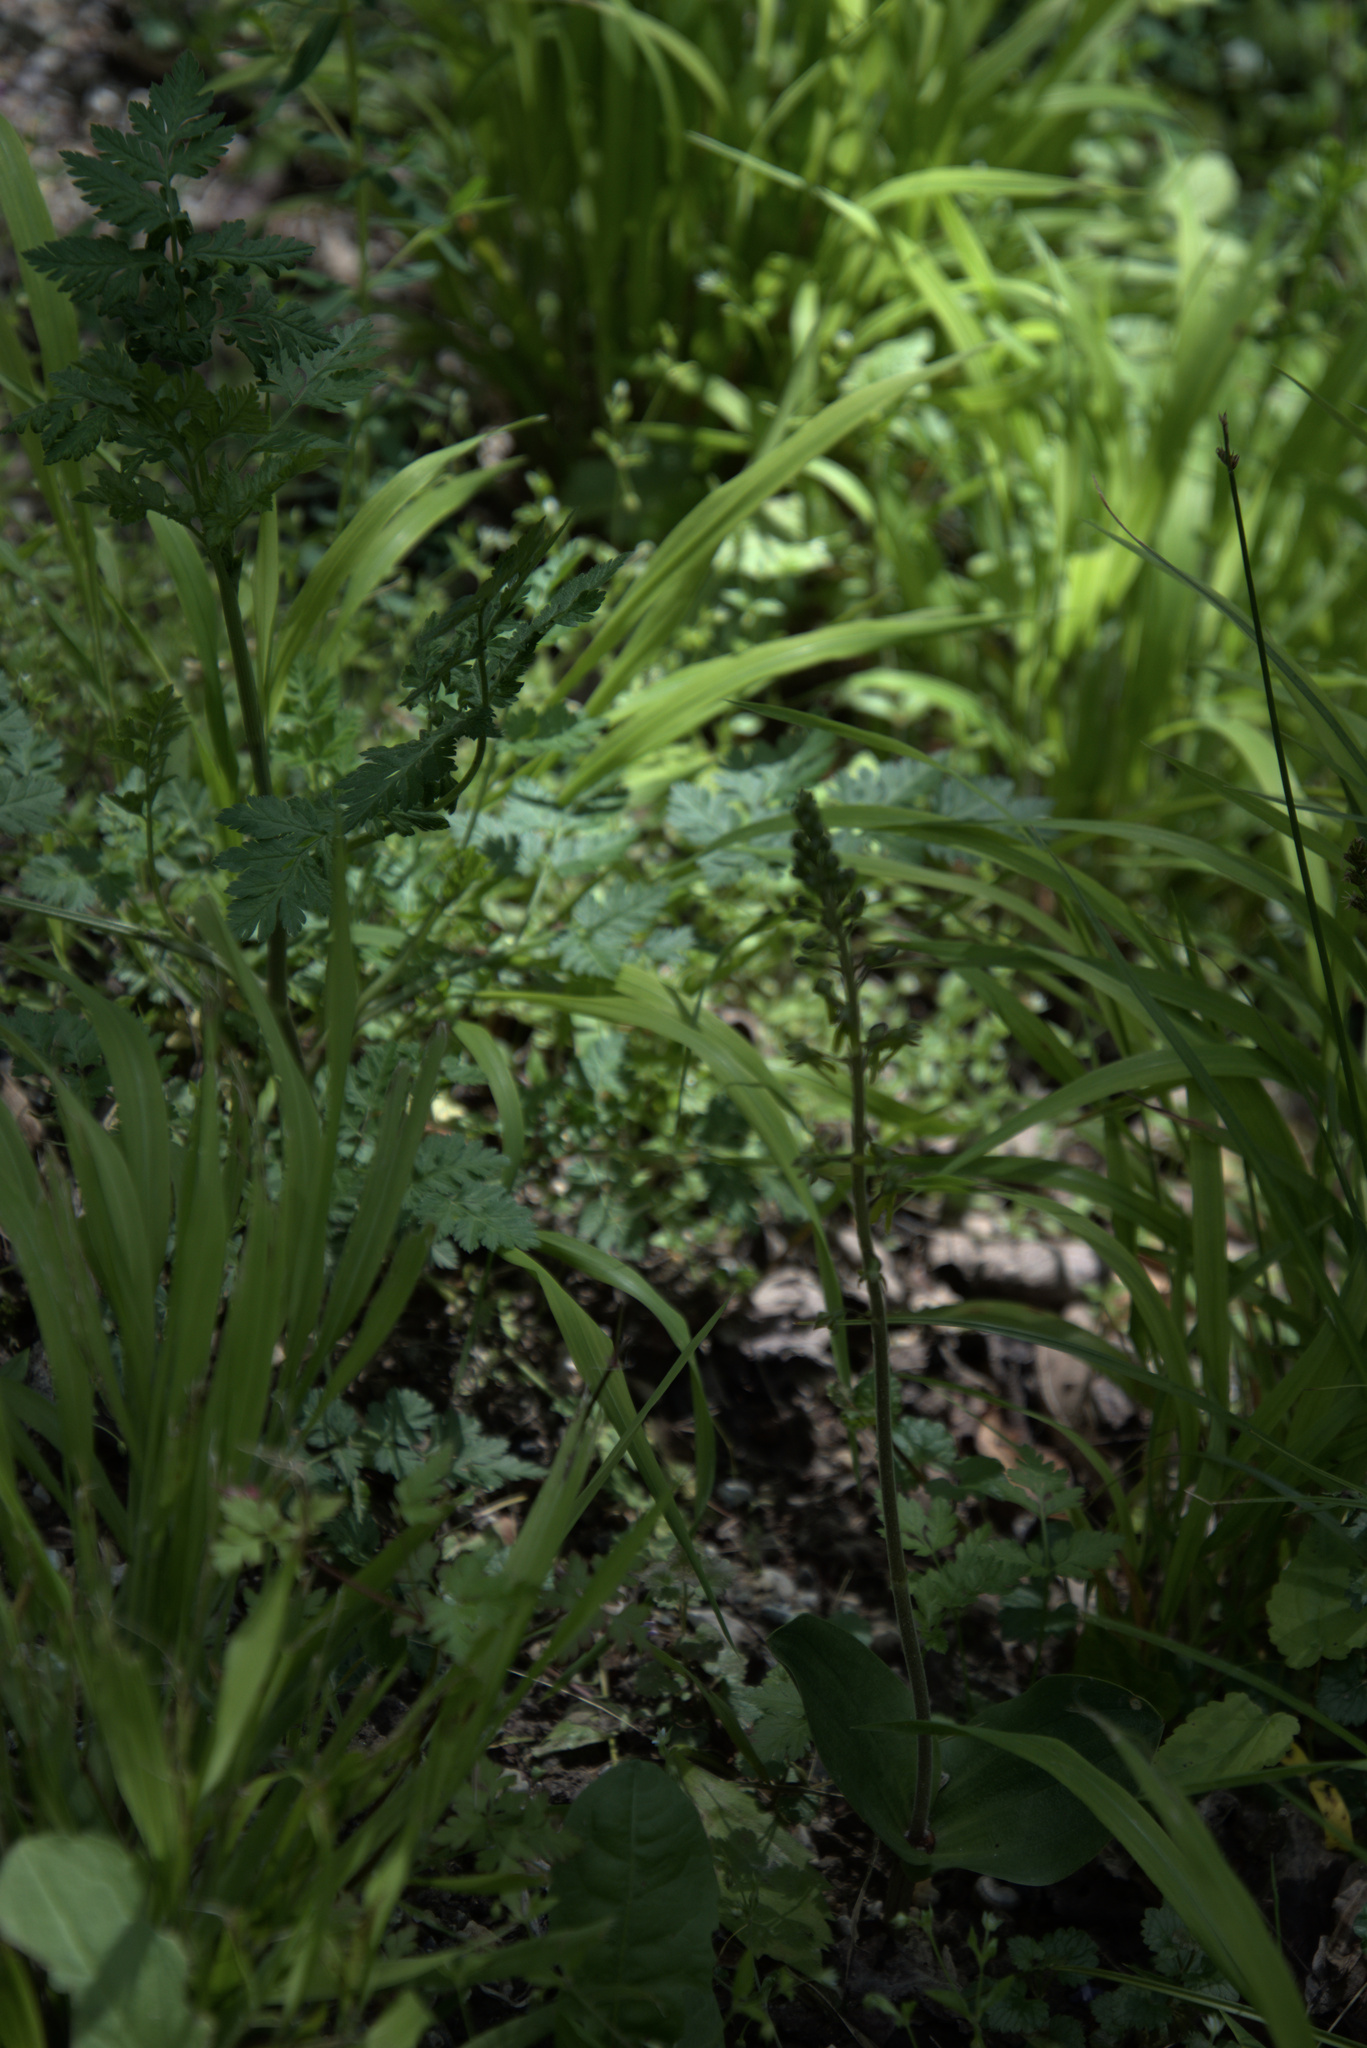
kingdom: Plantae
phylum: Tracheophyta
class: Liliopsida
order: Asparagales
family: Orchidaceae
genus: Neottia
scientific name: Neottia ovata
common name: Common twayblade
